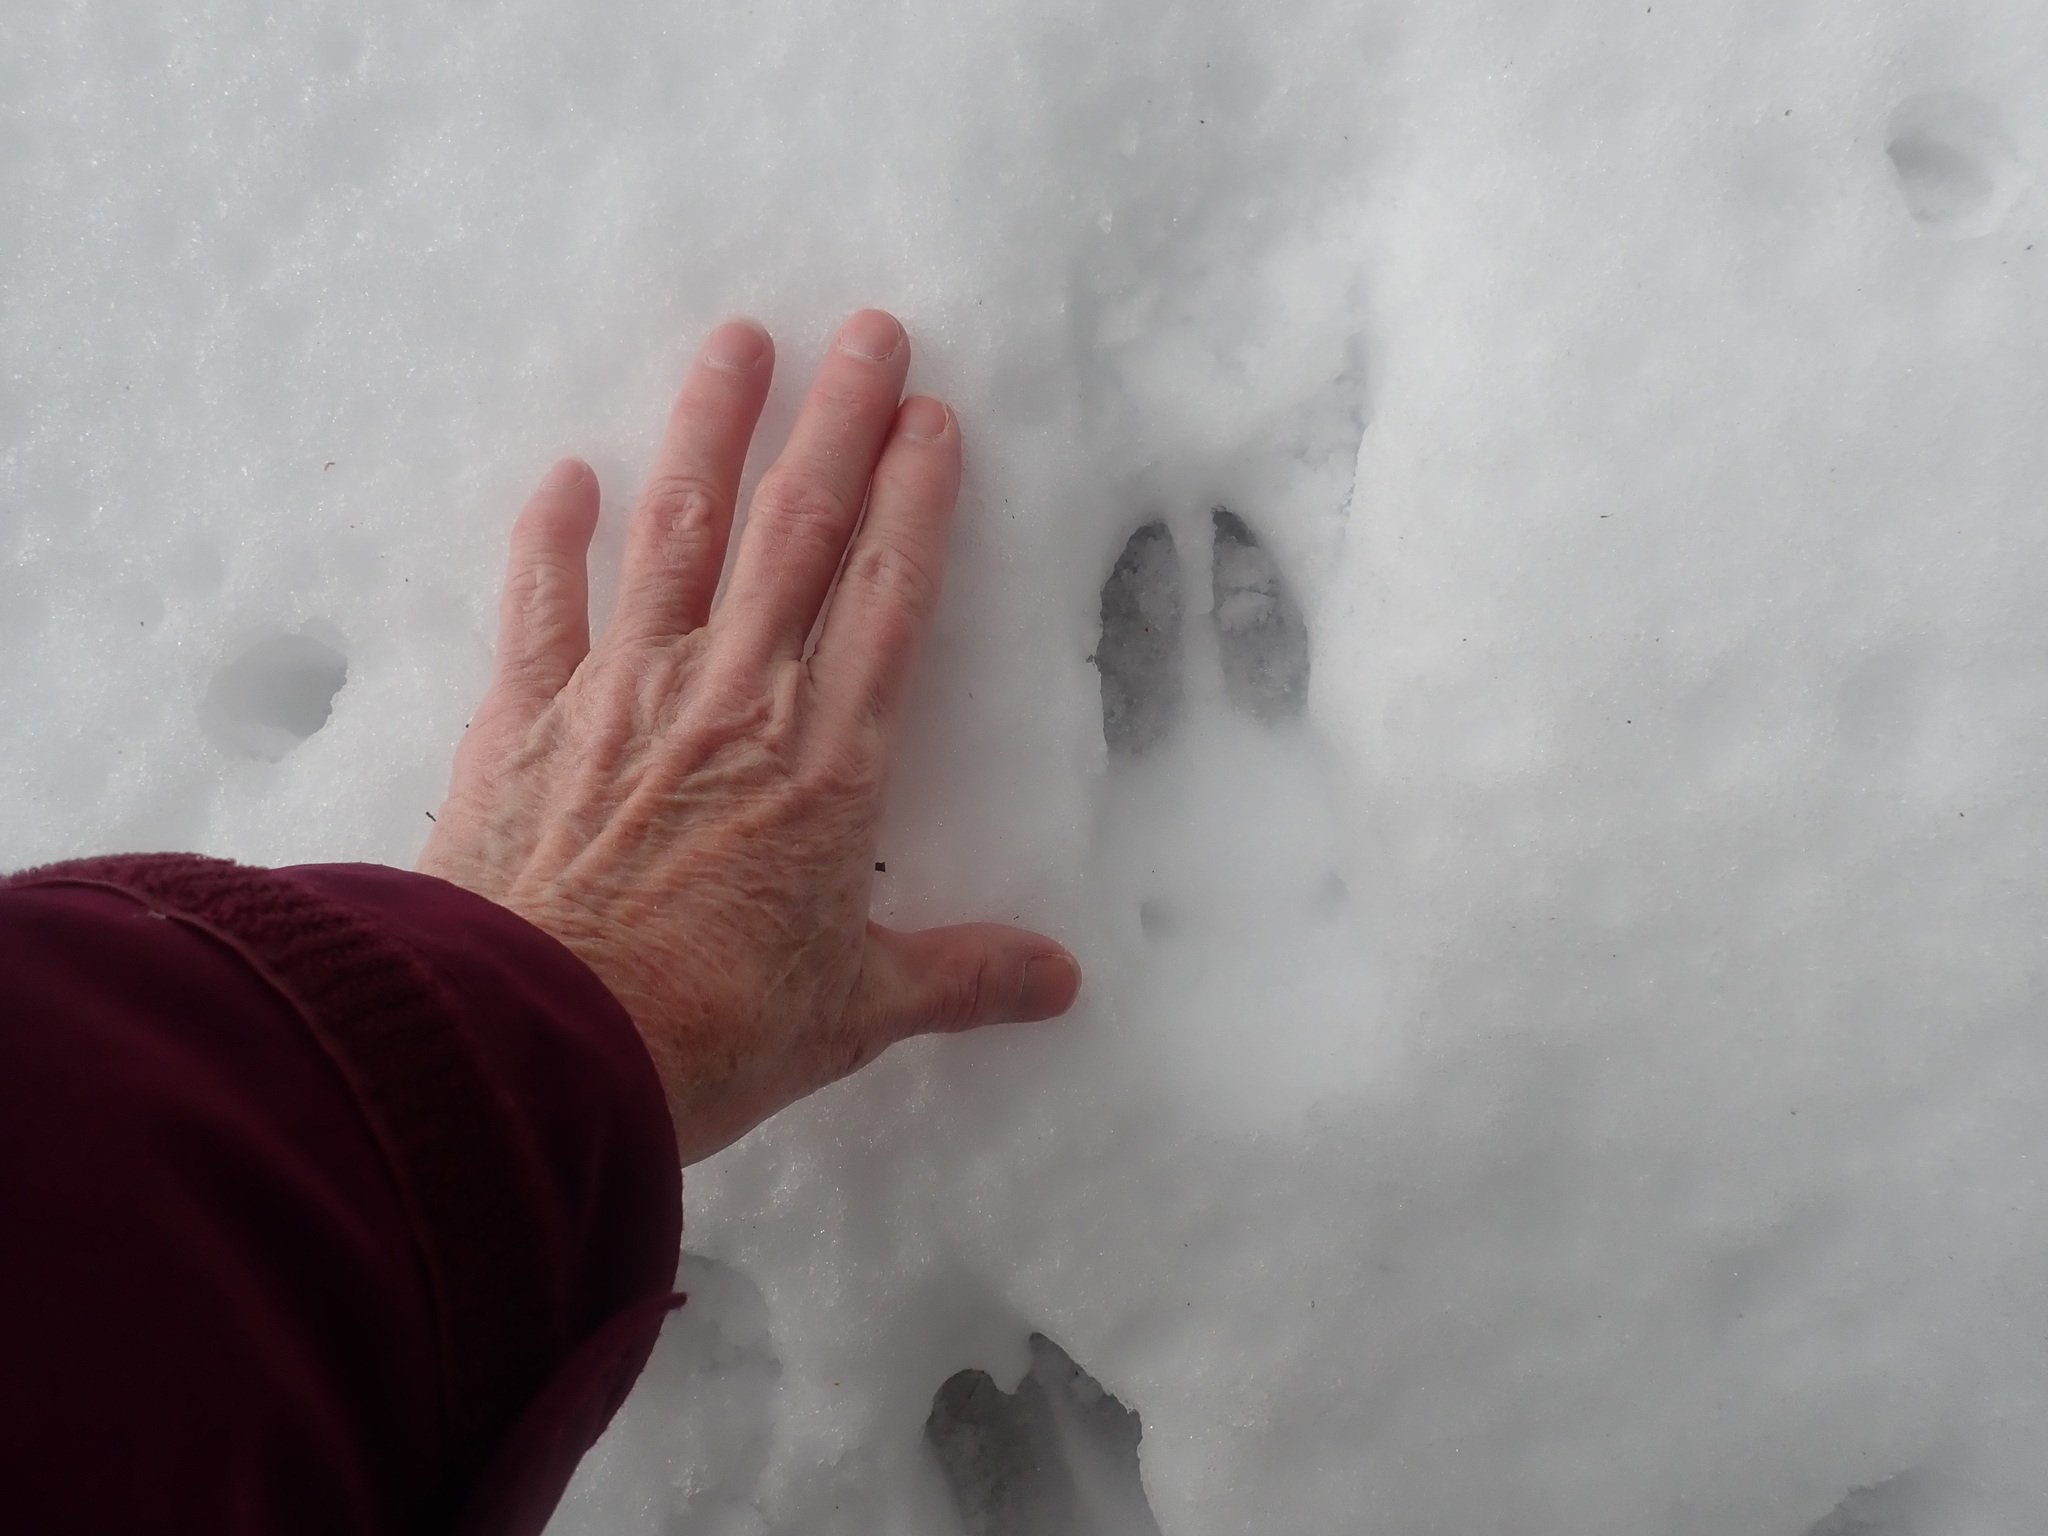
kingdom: Animalia
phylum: Chordata
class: Mammalia
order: Artiodactyla
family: Cervidae
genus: Odocoileus
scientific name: Odocoileus virginianus
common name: White-tailed deer
